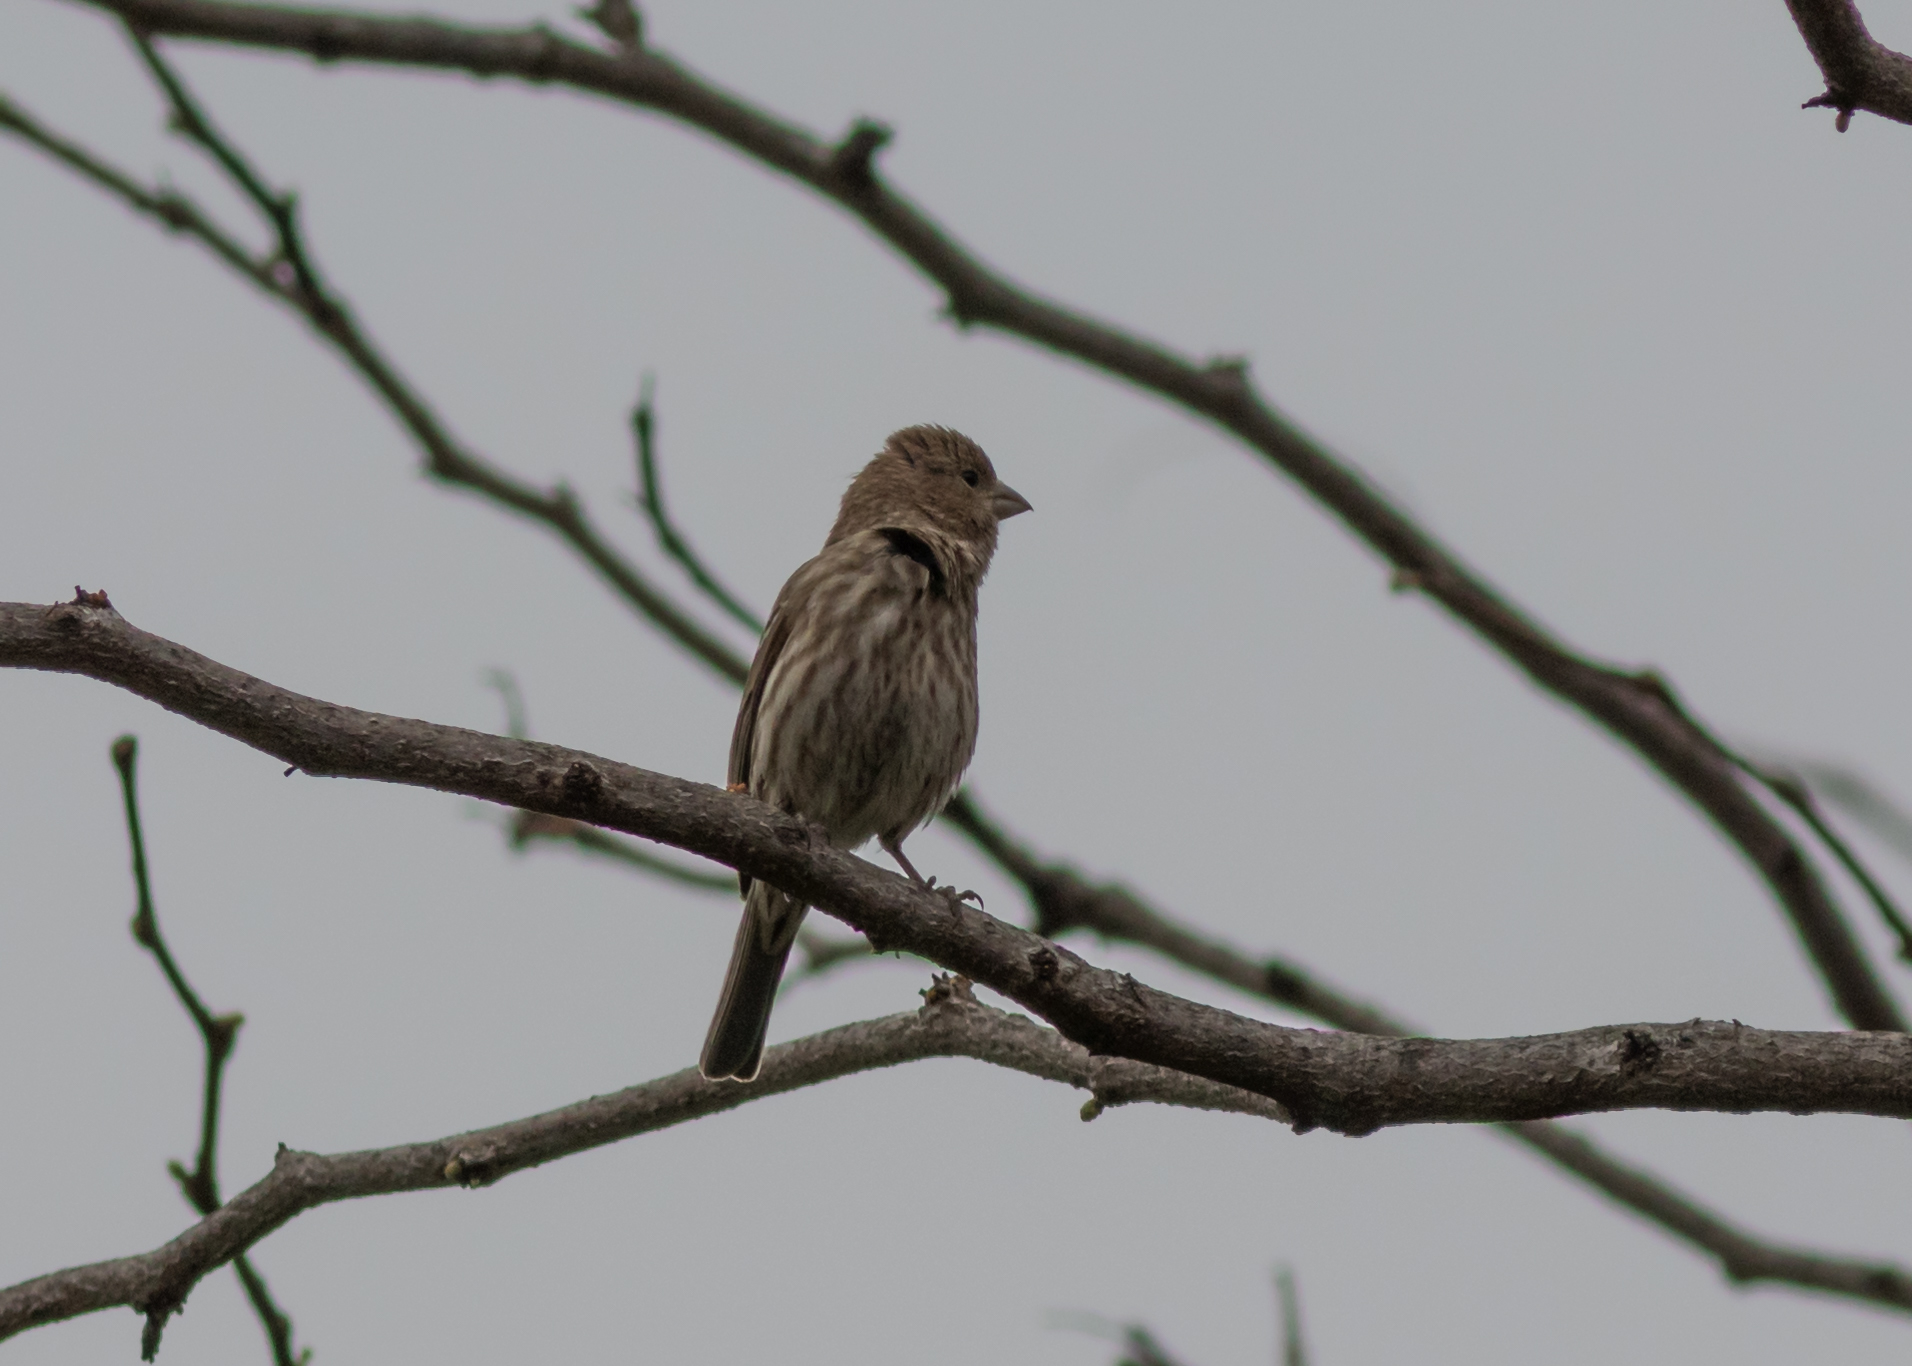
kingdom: Animalia
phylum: Chordata
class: Aves
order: Passeriformes
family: Fringillidae
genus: Haemorhous
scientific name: Haemorhous mexicanus
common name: House finch
